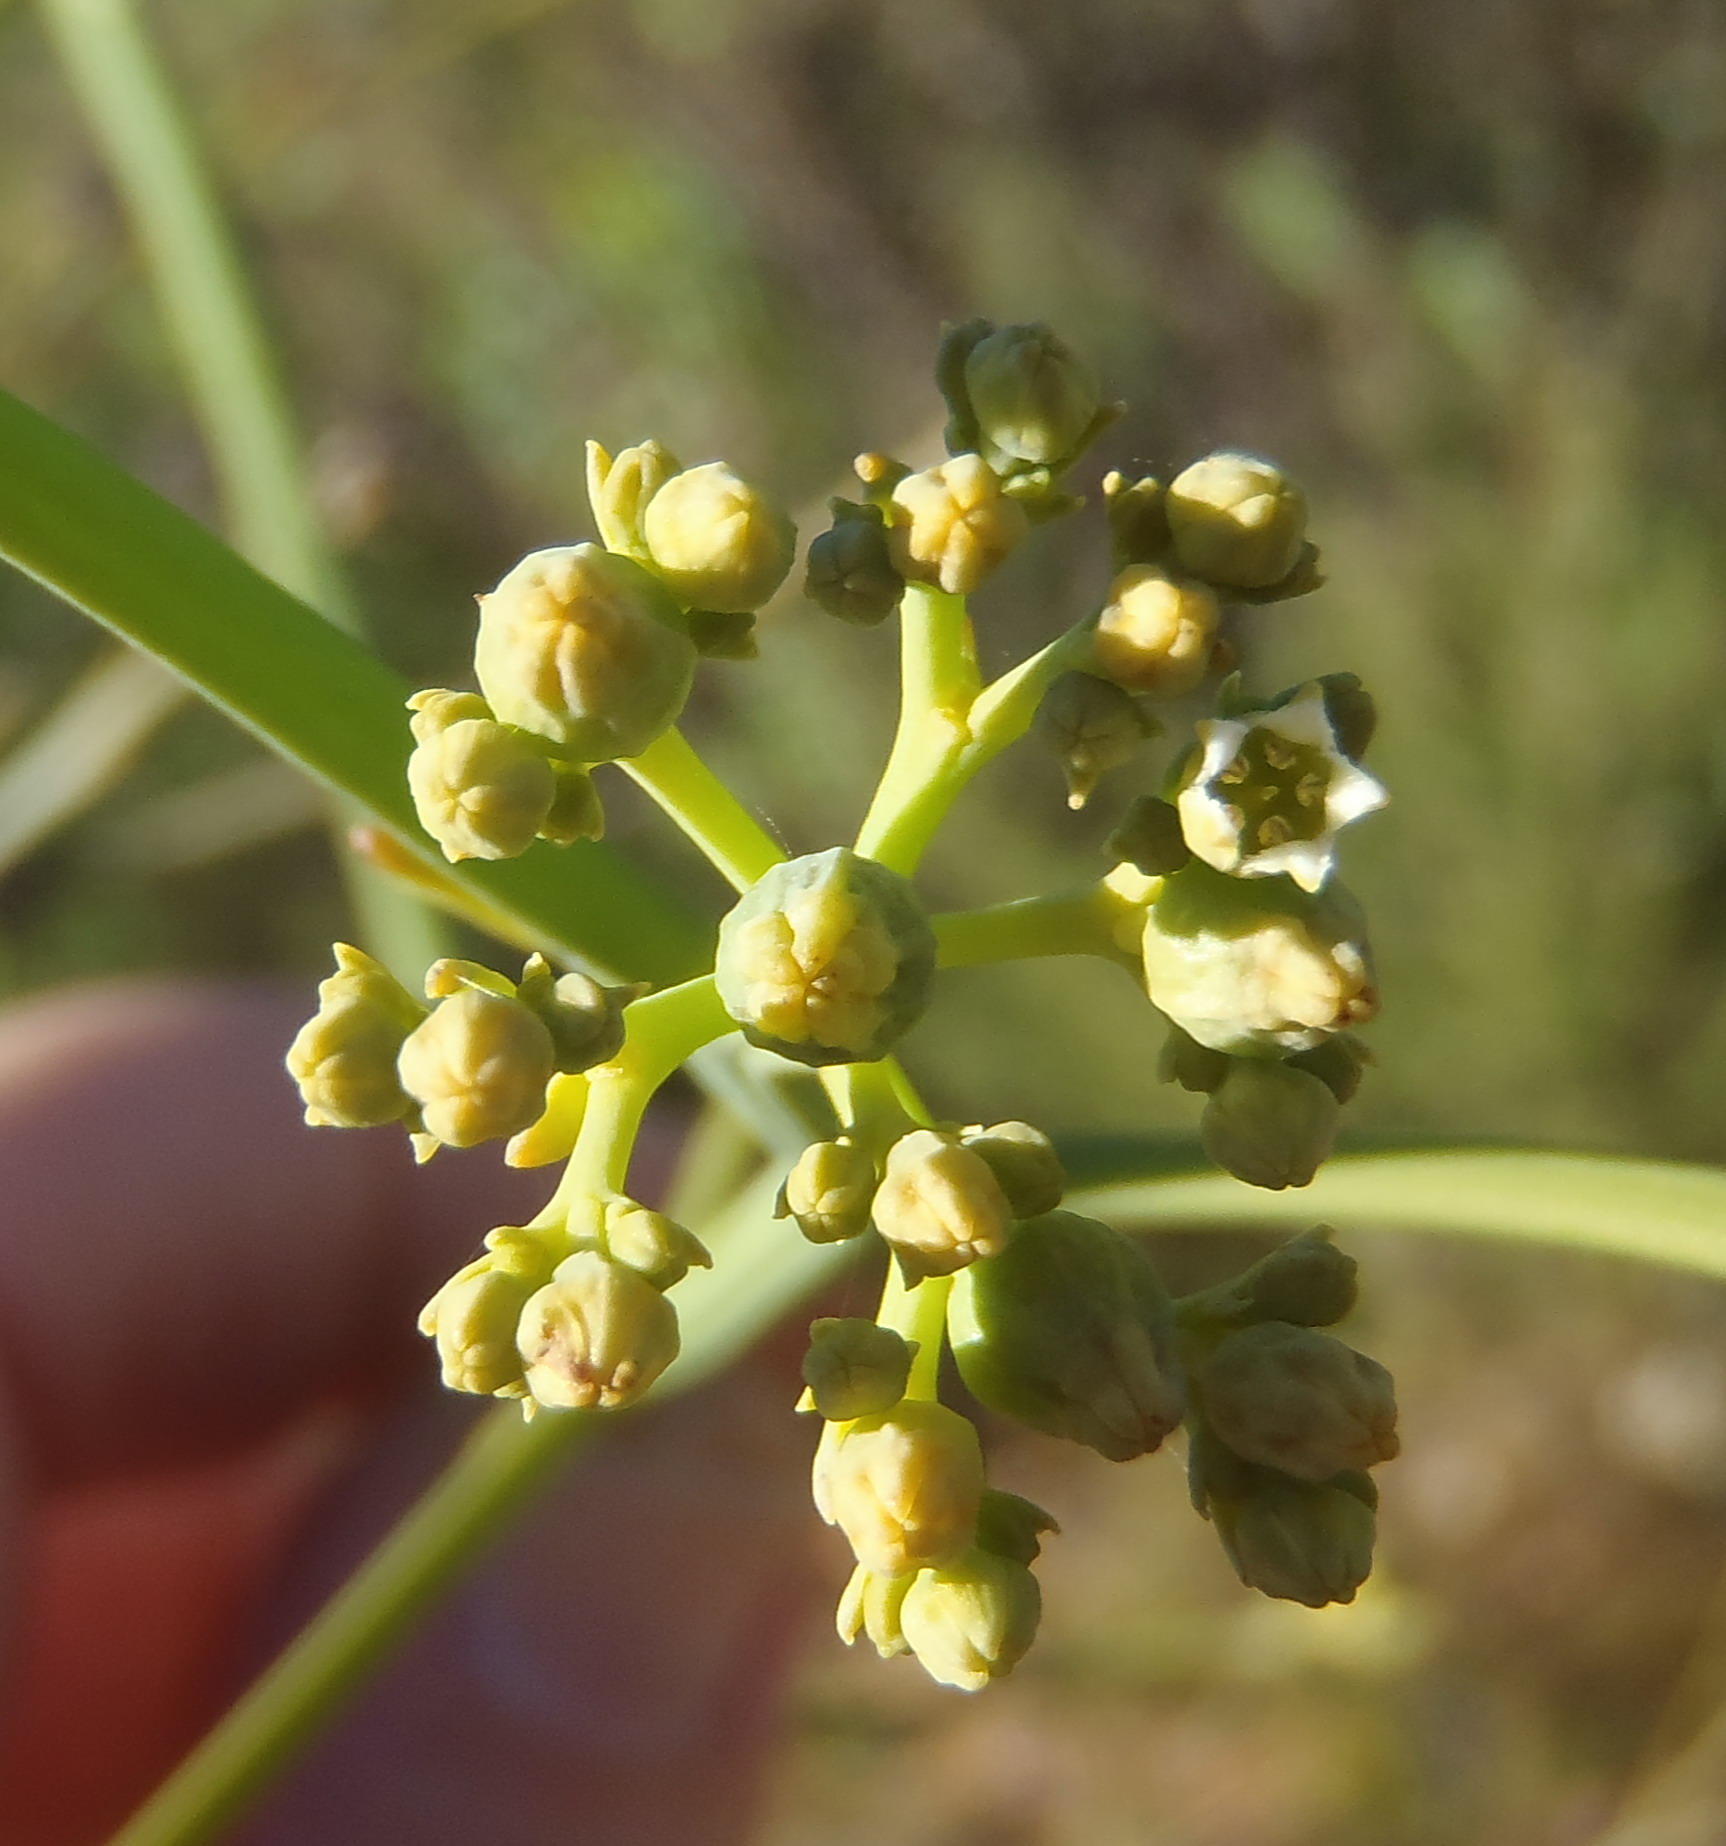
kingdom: Plantae
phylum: Tracheophyta
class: Magnoliopsida
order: Santalales
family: Thesiaceae
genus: Thesium
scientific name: Thesium strictum
